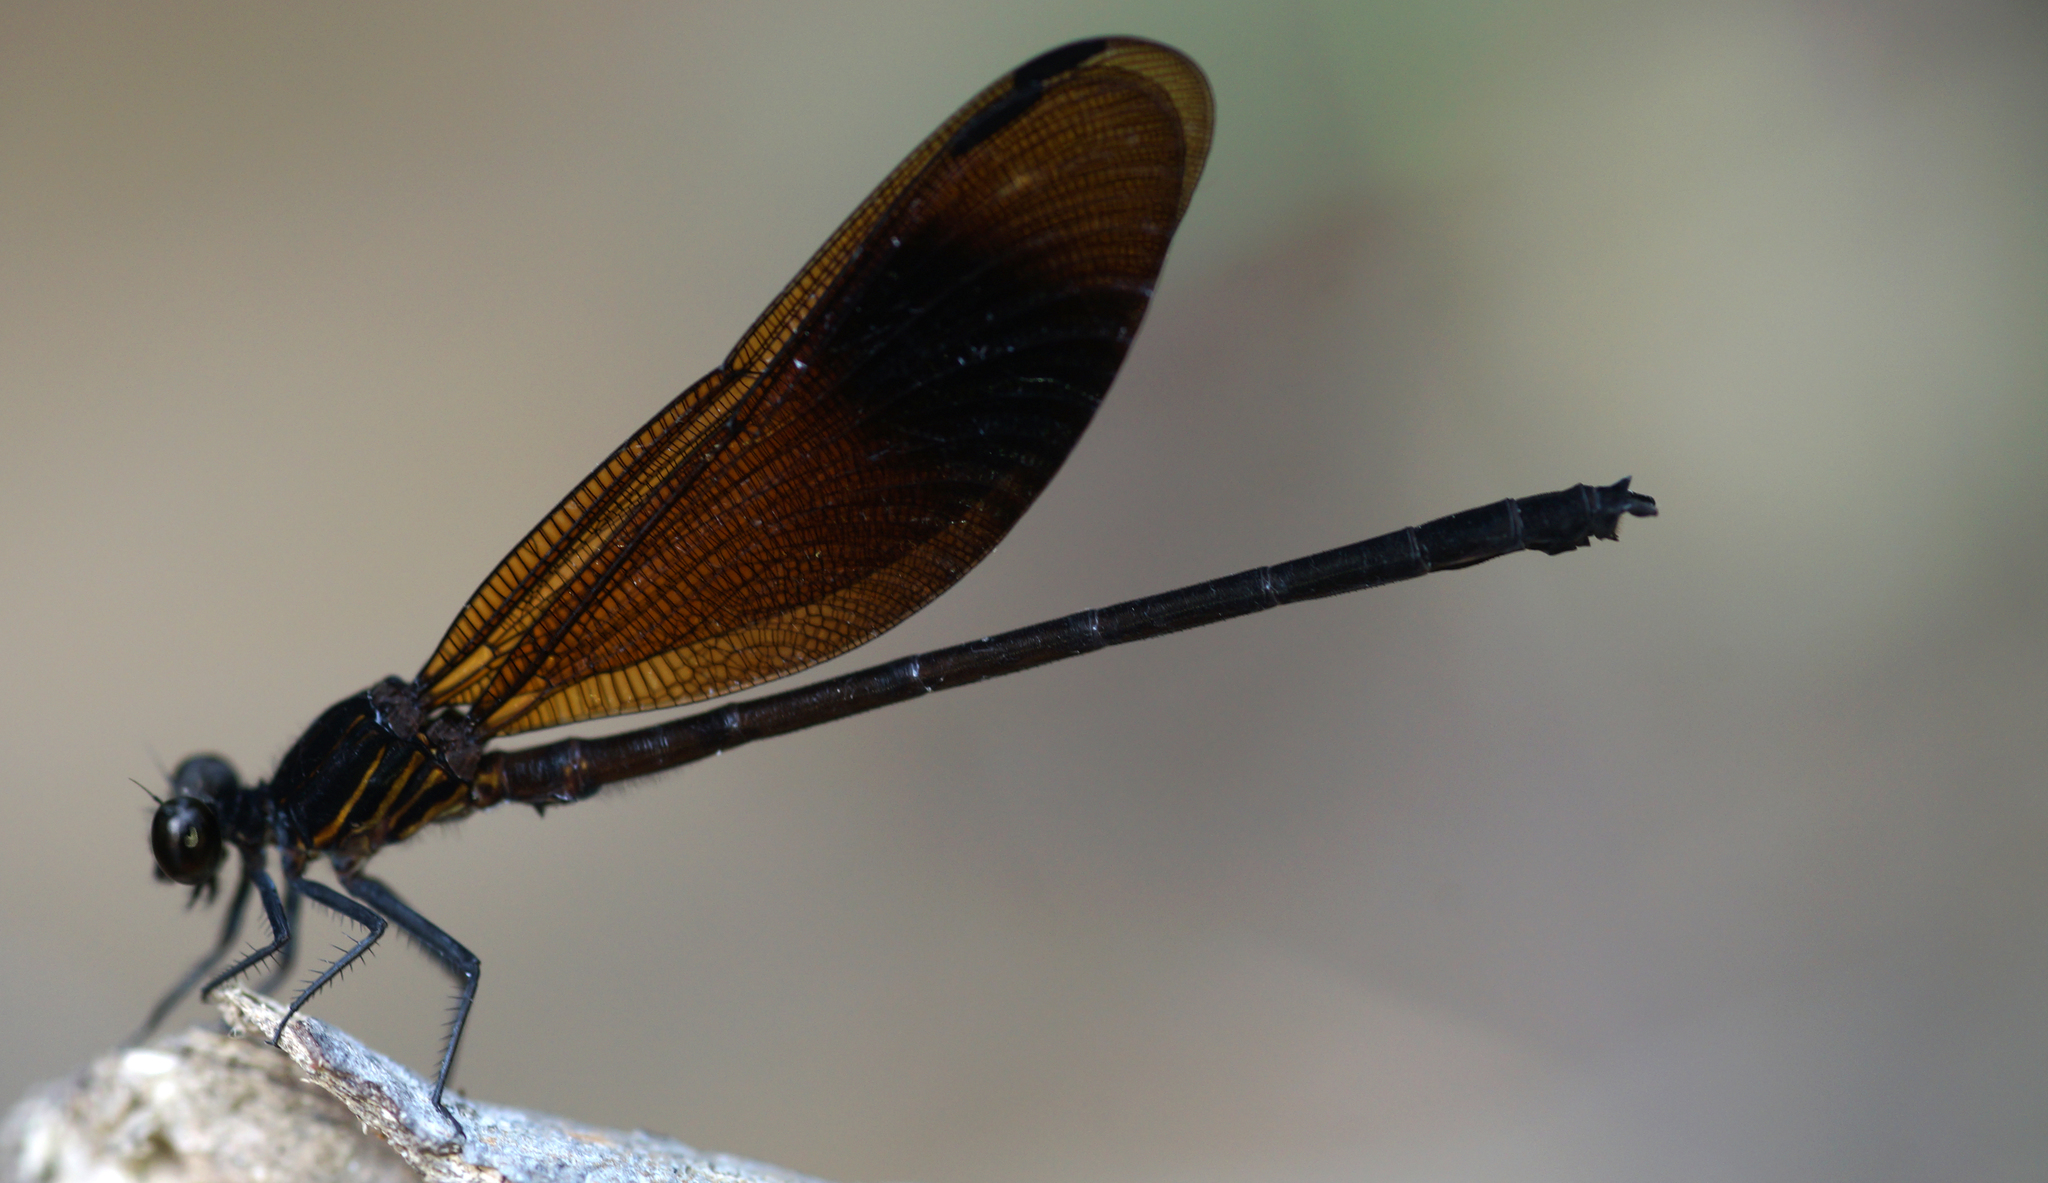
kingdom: Animalia
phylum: Arthropoda
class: Insecta
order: Odonata
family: Euphaeidae
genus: Euphaea
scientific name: Euphaea masoni
